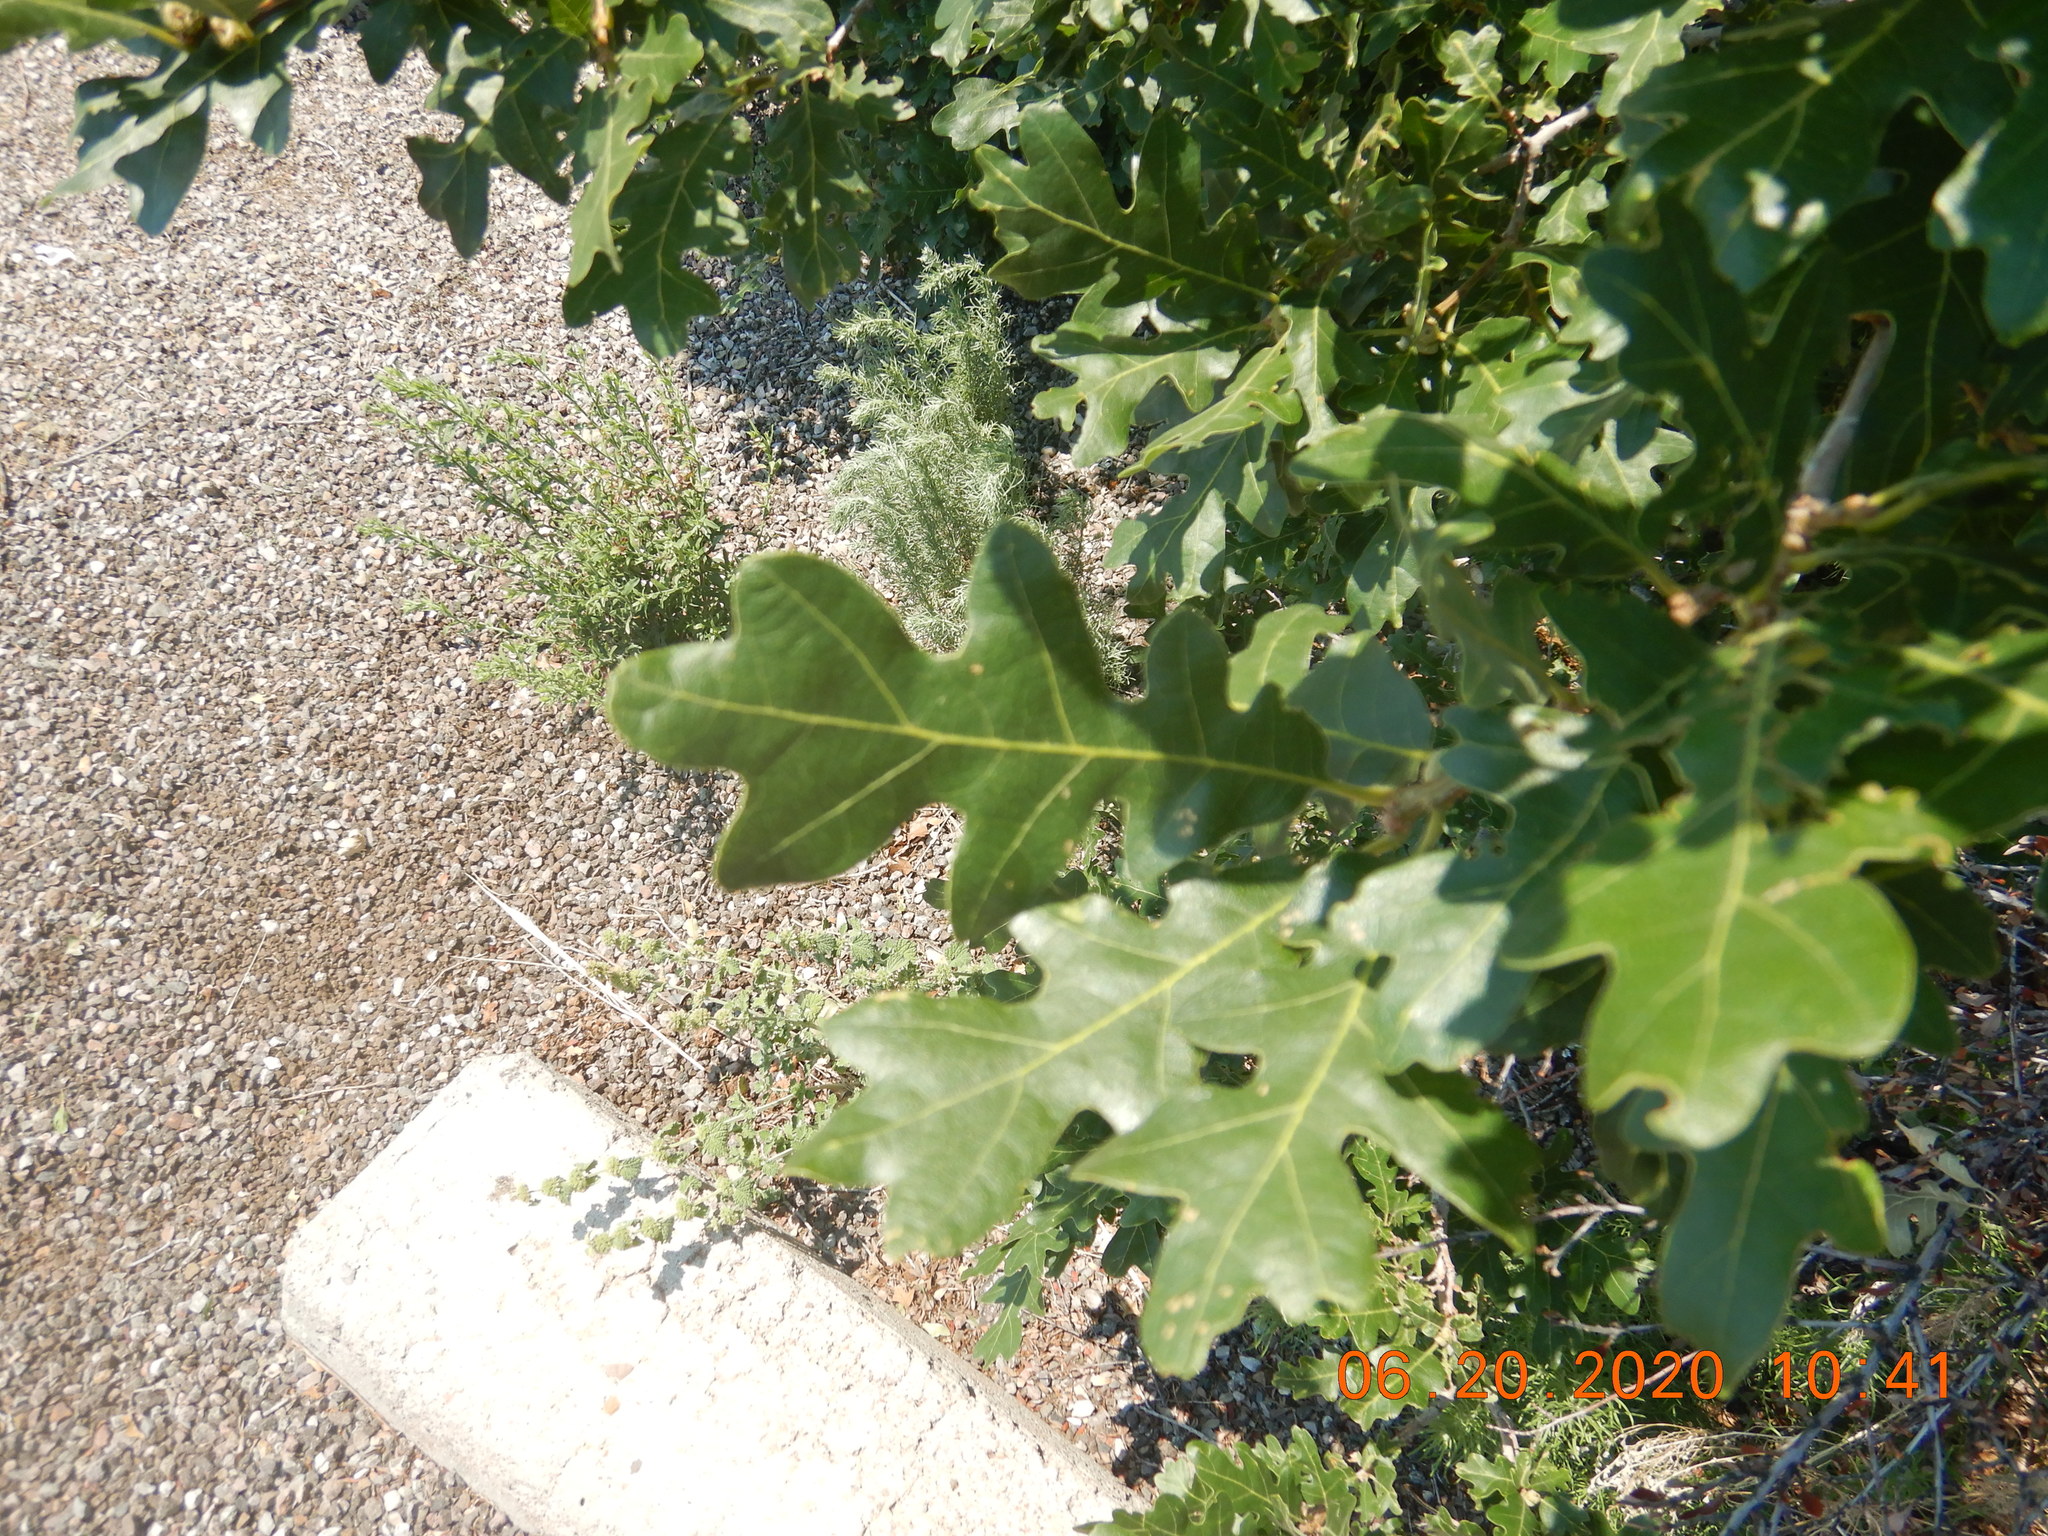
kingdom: Plantae
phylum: Tracheophyta
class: Magnoliopsida
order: Fagales
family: Fagaceae
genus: Quercus
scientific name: Quercus gambelii
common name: Gambel oak
